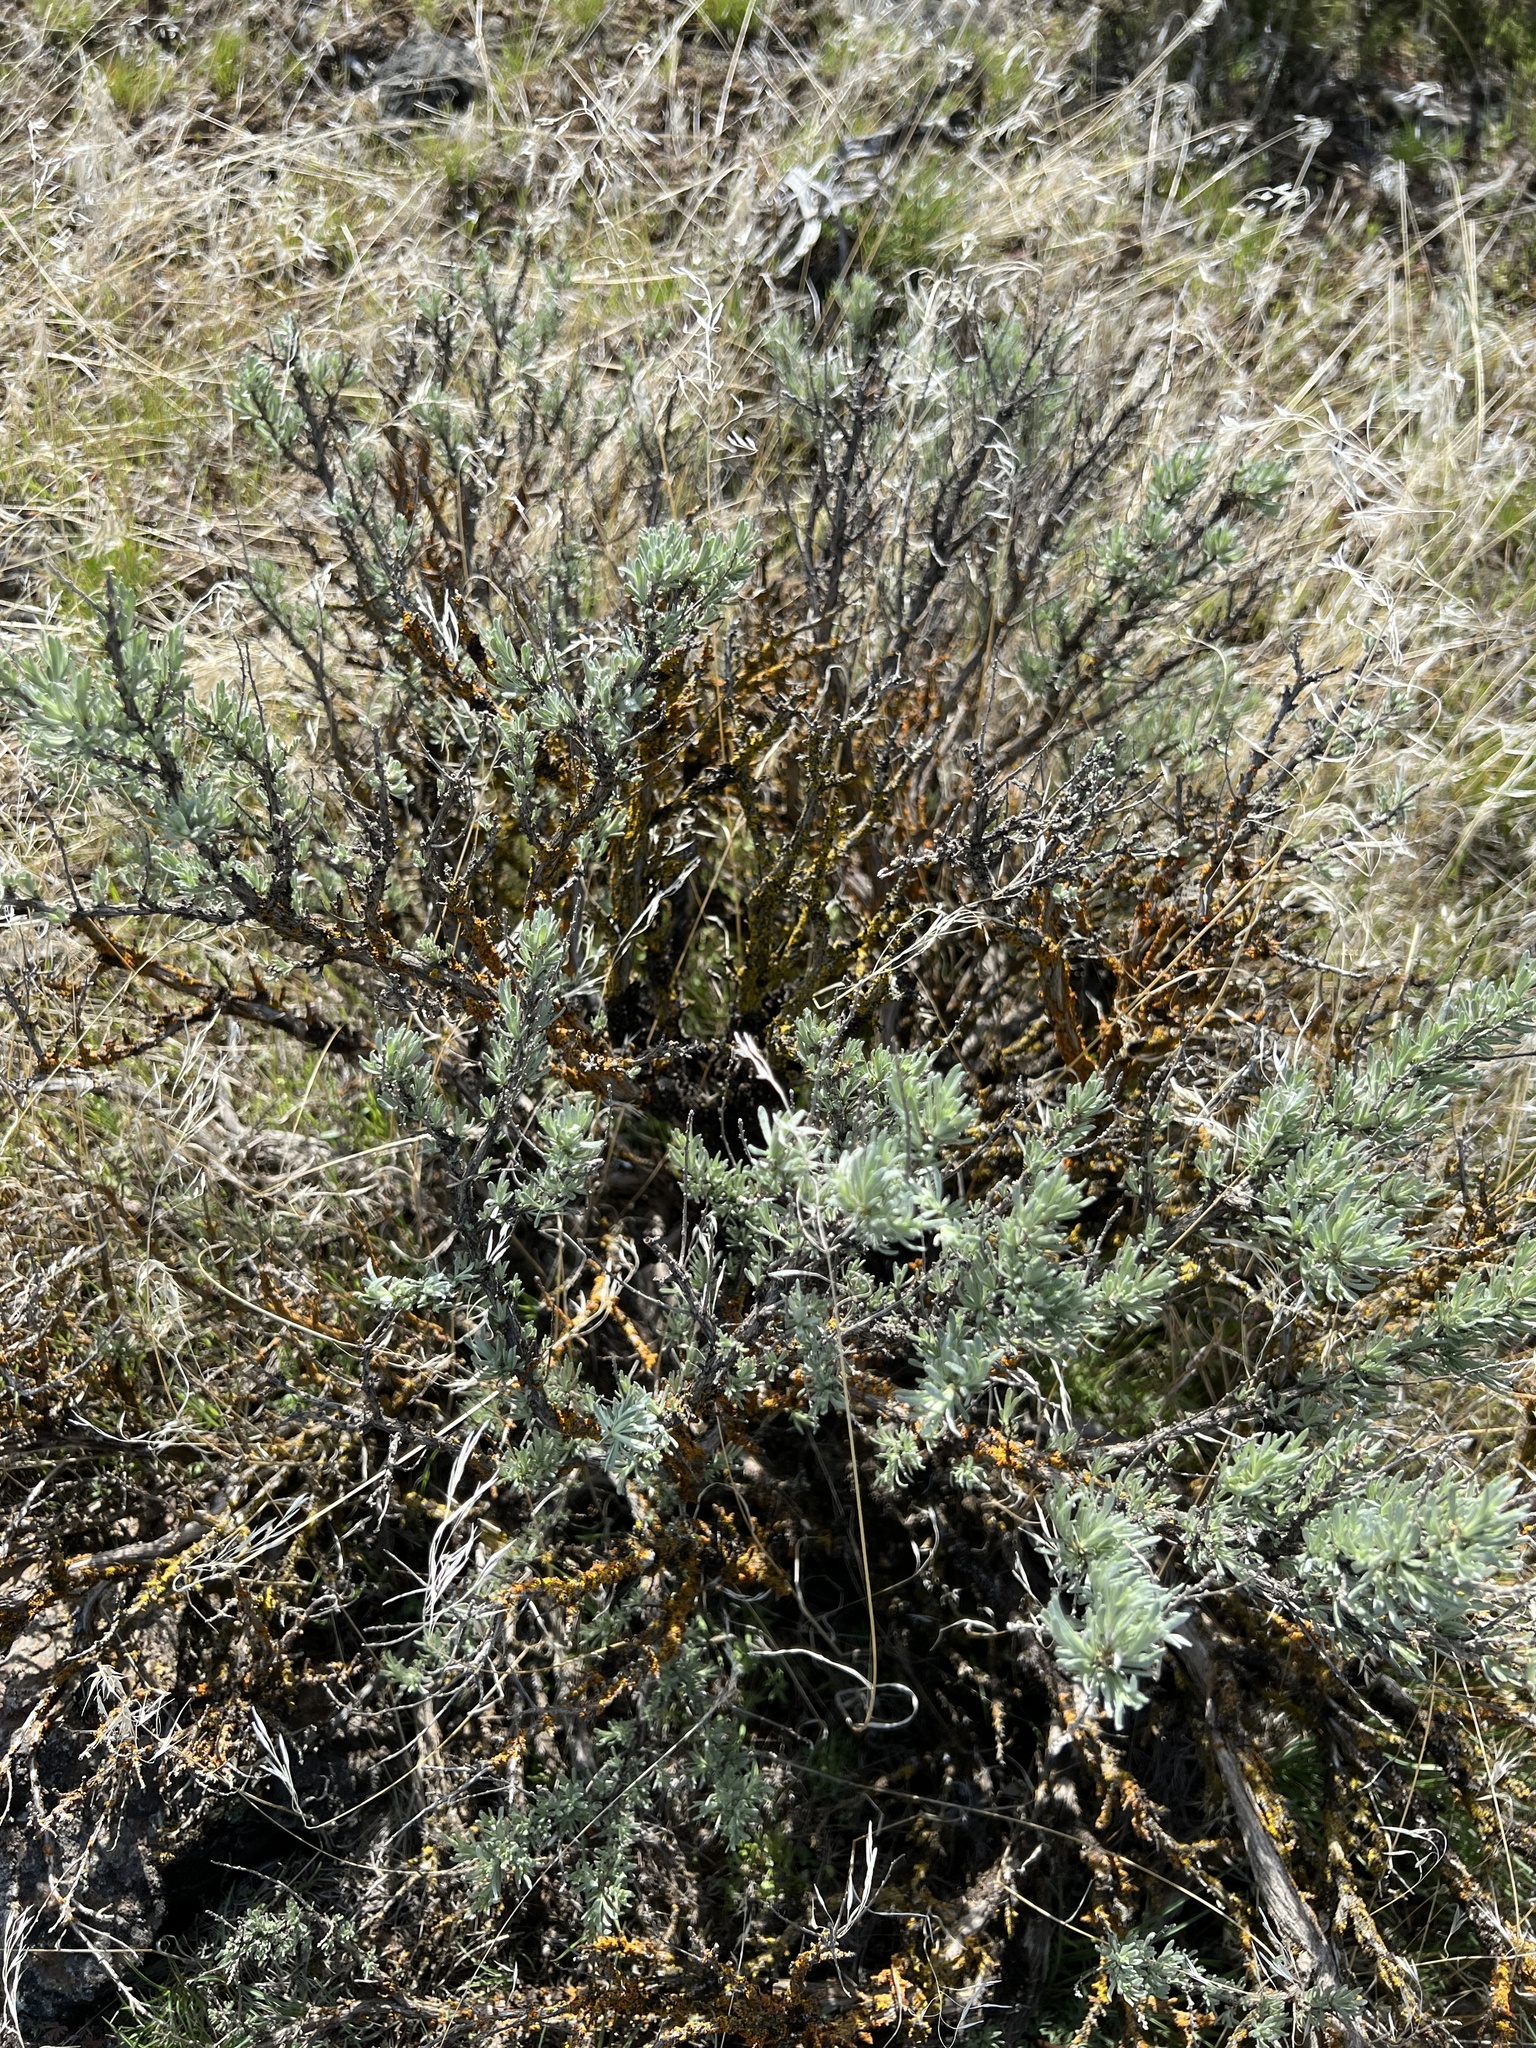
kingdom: Plantae
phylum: Tracheophyta
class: Magnoliopsida
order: Asterales
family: Asteraceae
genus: Artemisia
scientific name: Artemisia rigida
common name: Scabland sagebrush
